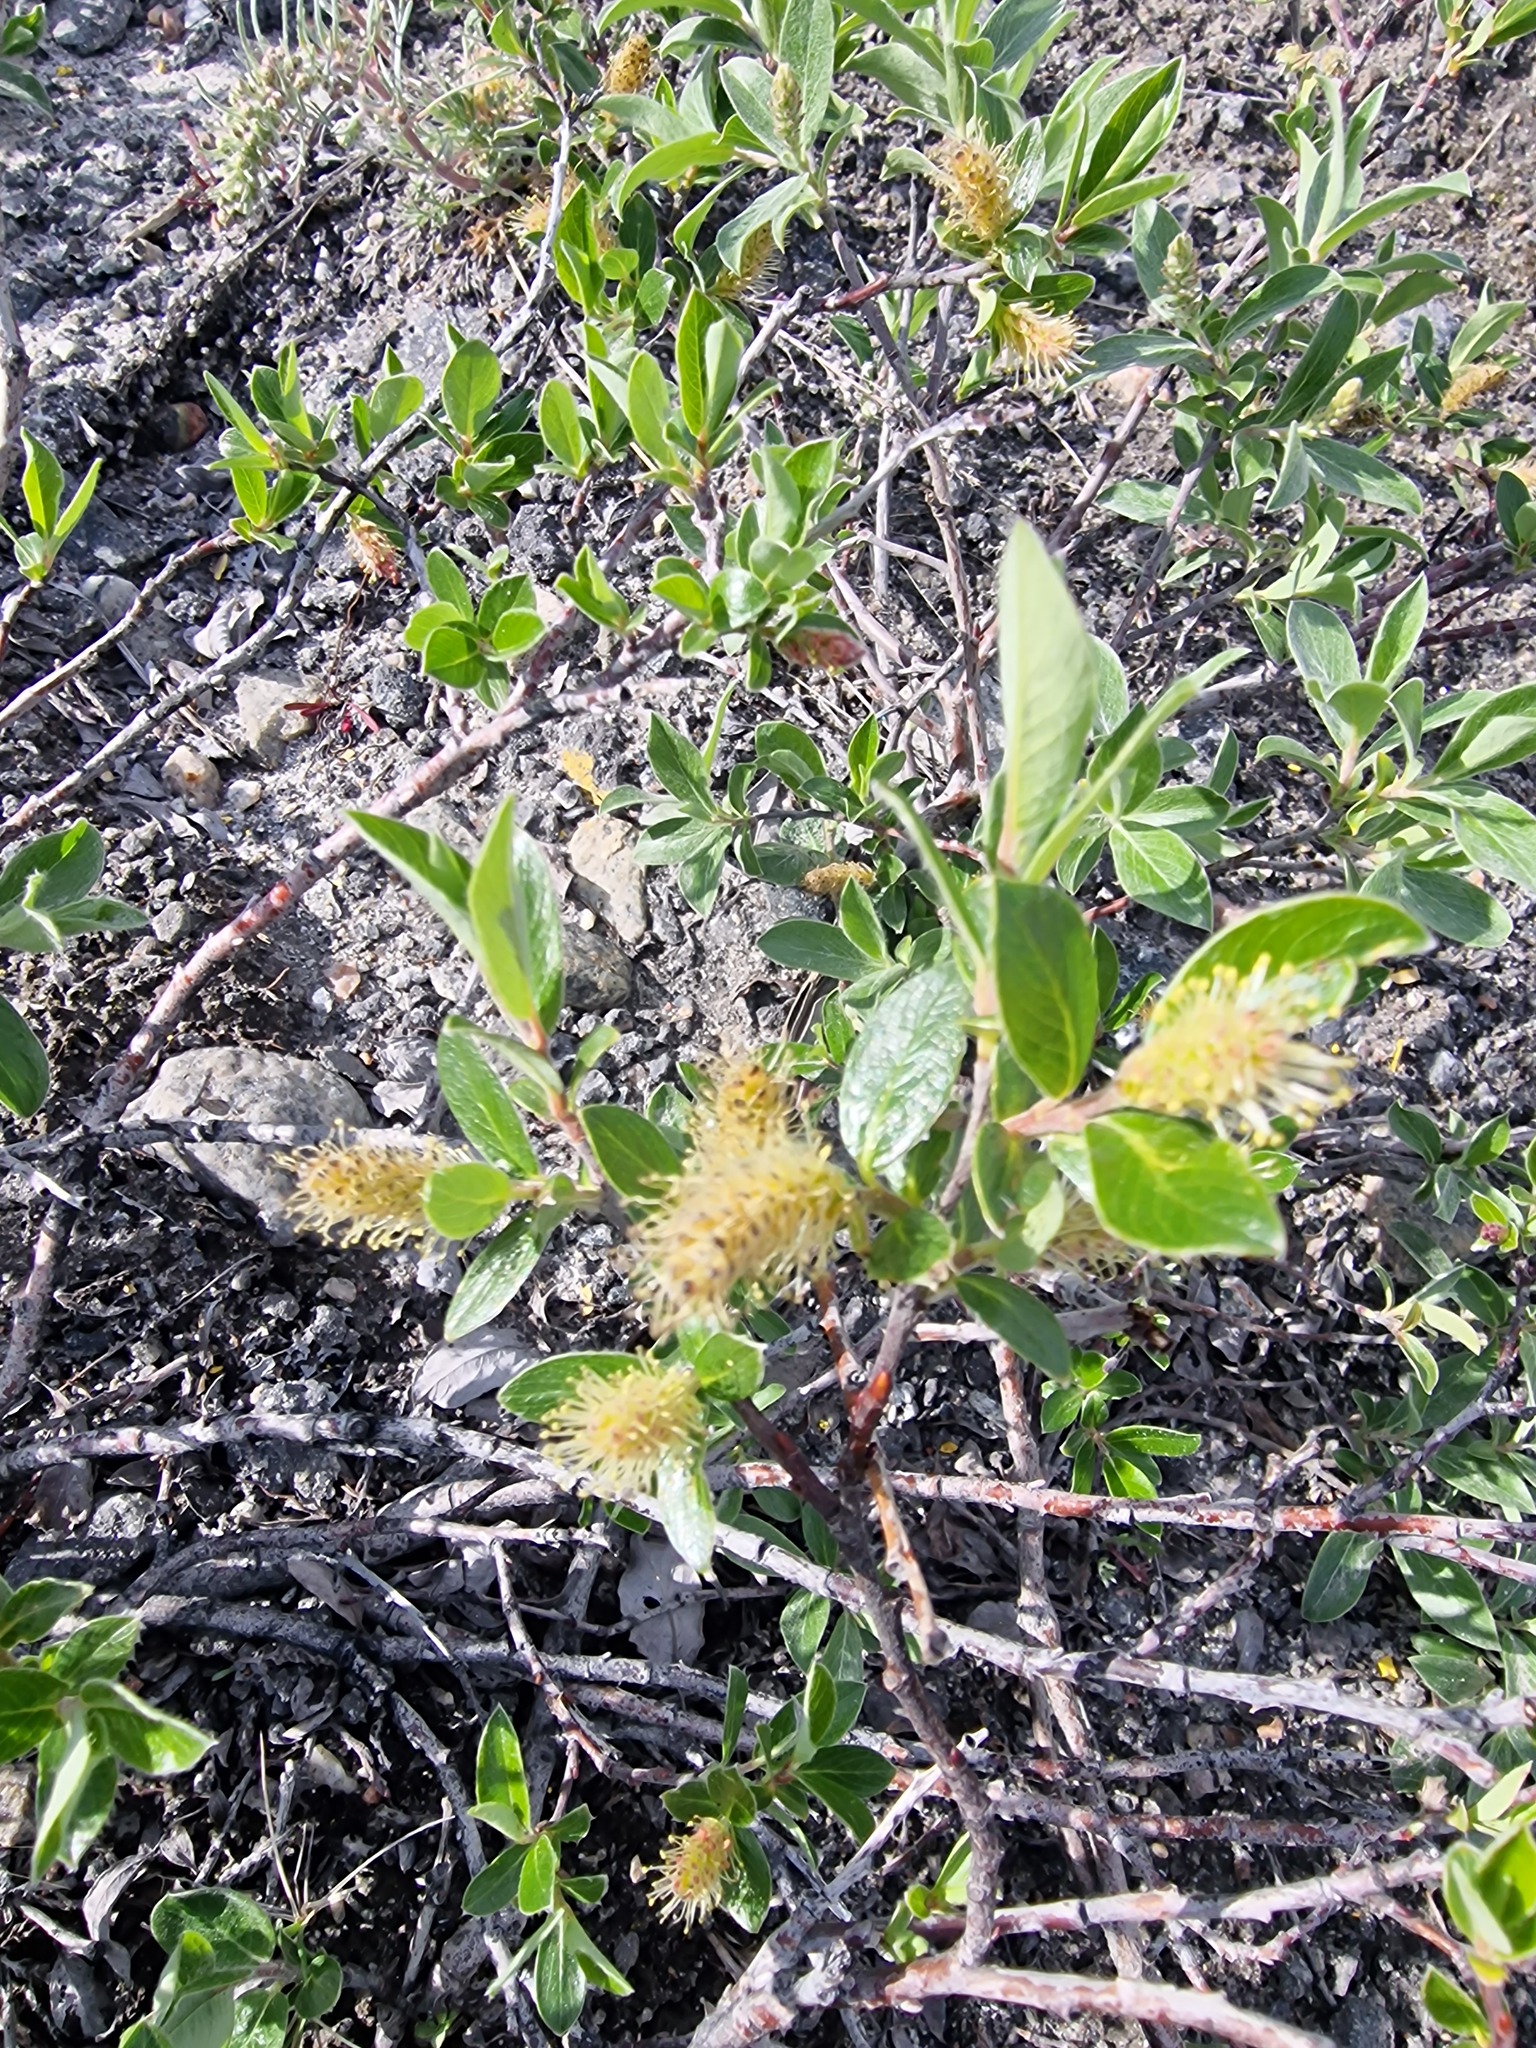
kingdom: Plantae
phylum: Tracheophyta
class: Magnoliopsida
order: Malpighiales
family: Salicaceae
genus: Salix
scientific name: Salix glauca
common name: Glaucous willow
